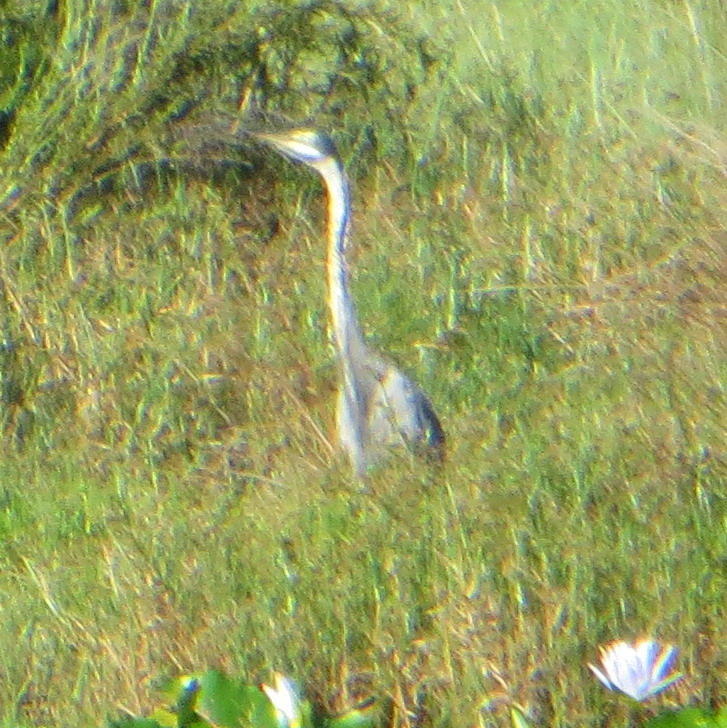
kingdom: Animalia
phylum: Chordata
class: Aves
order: Pelecaniformes
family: Ardeidae
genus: Ardea
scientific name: Ardea melanocephala
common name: Black-headed heron
